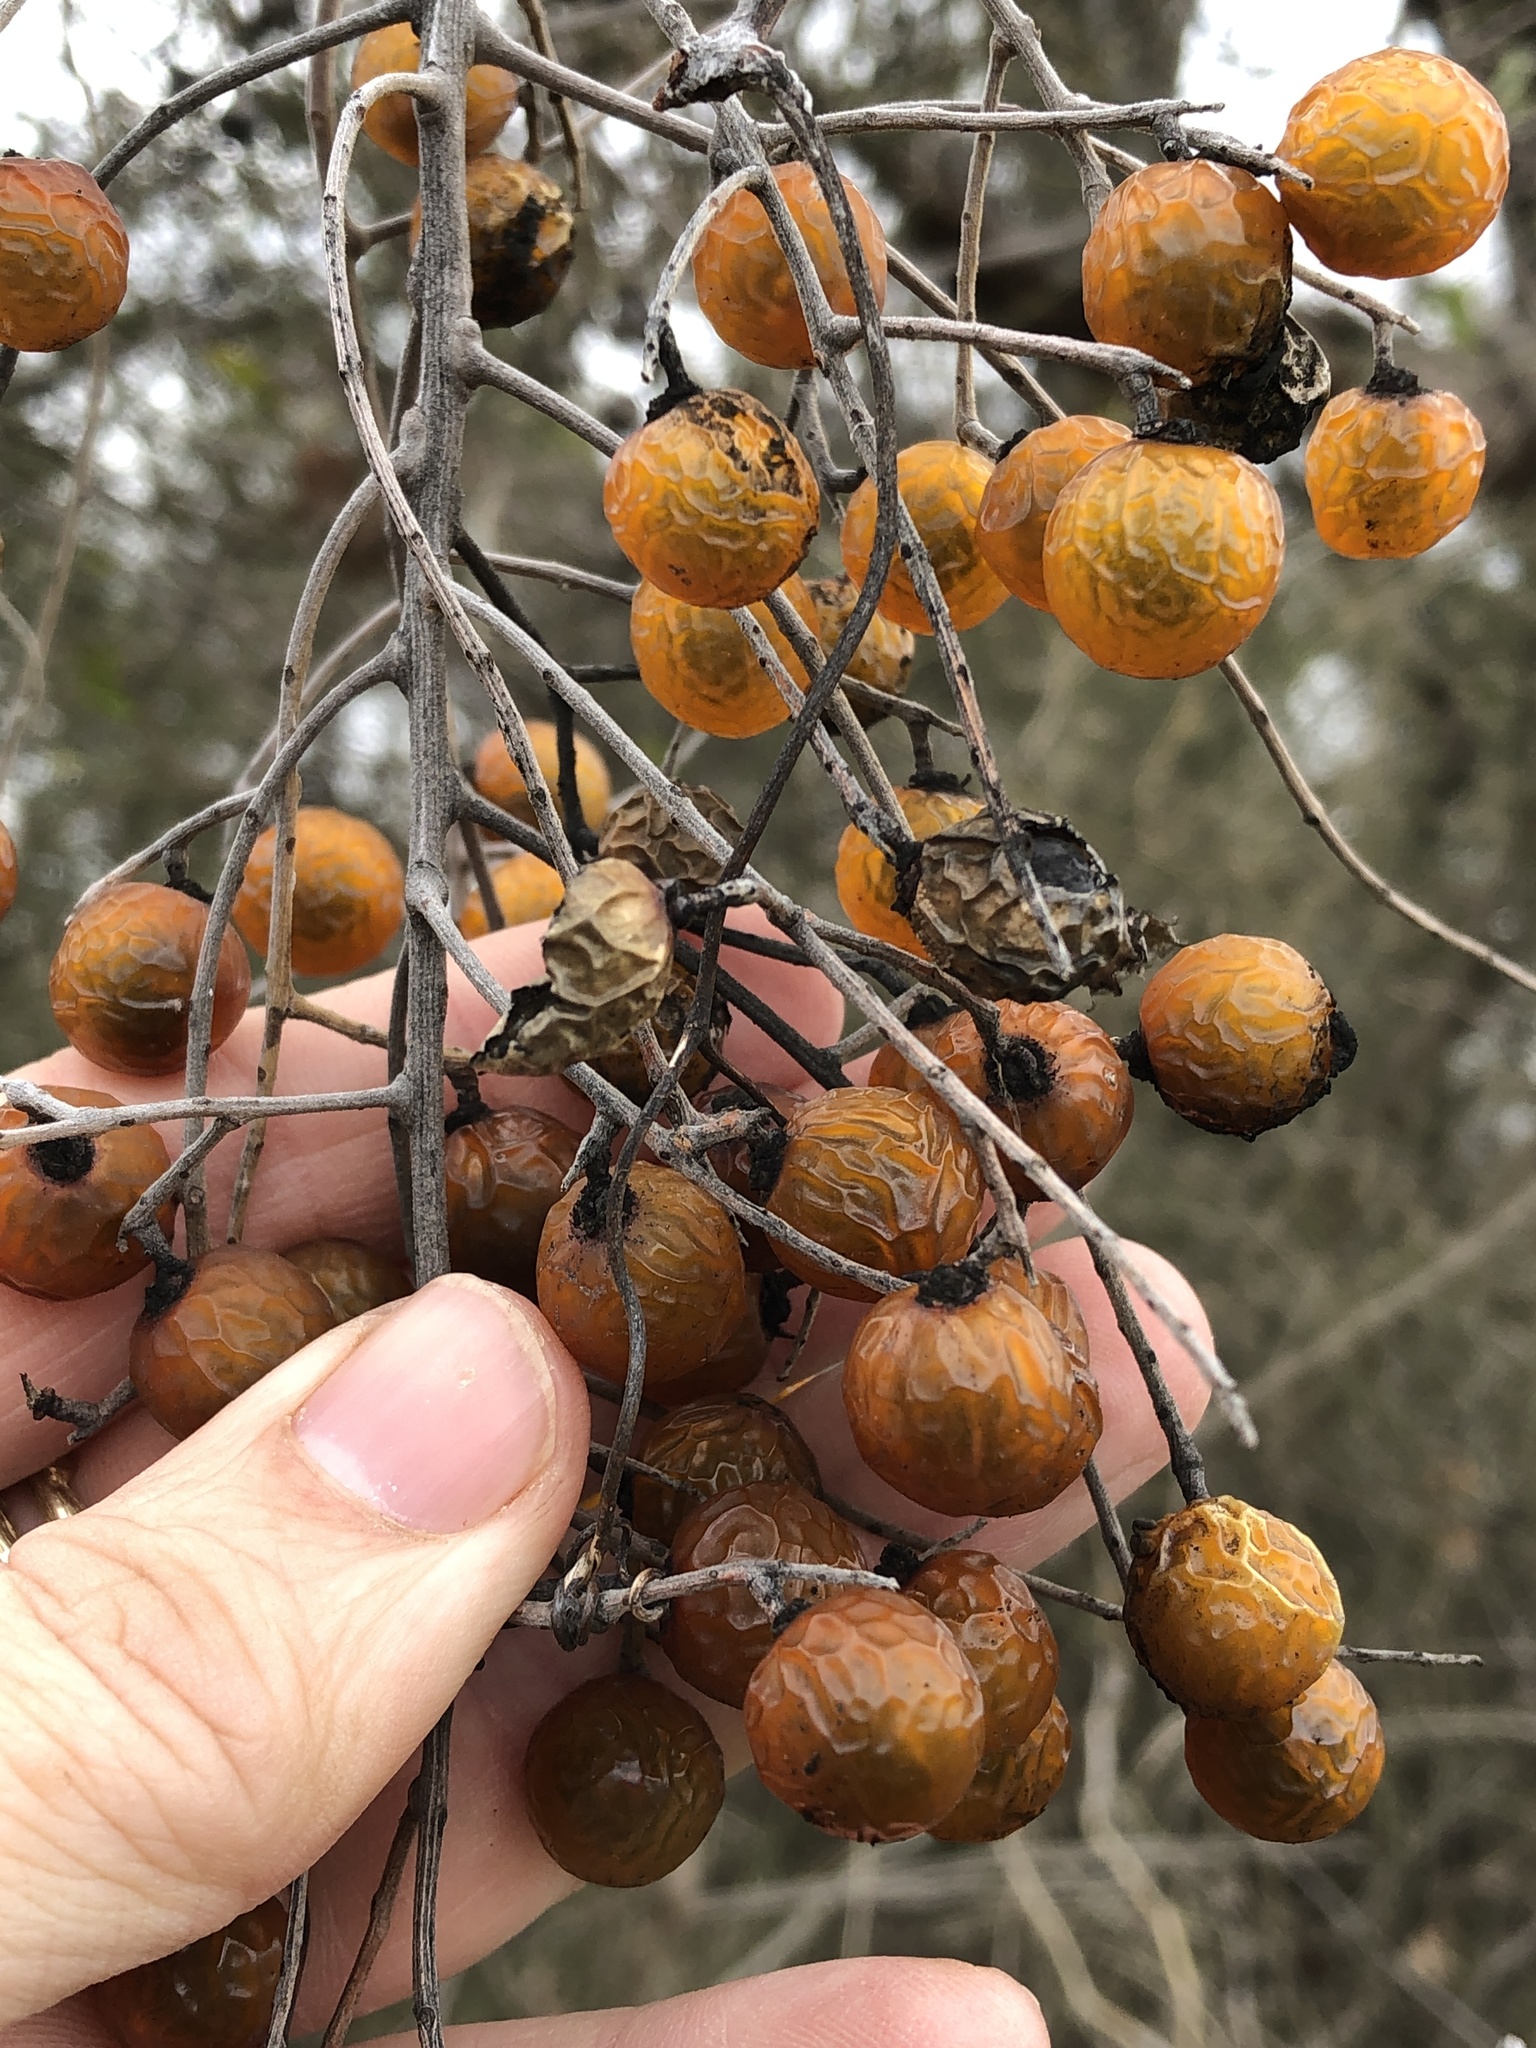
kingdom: Plantae
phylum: Tracheophyta
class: Magnoliopsida
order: Sapindales
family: Sapindaceae
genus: Sapindus
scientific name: Sapindus drummondii
